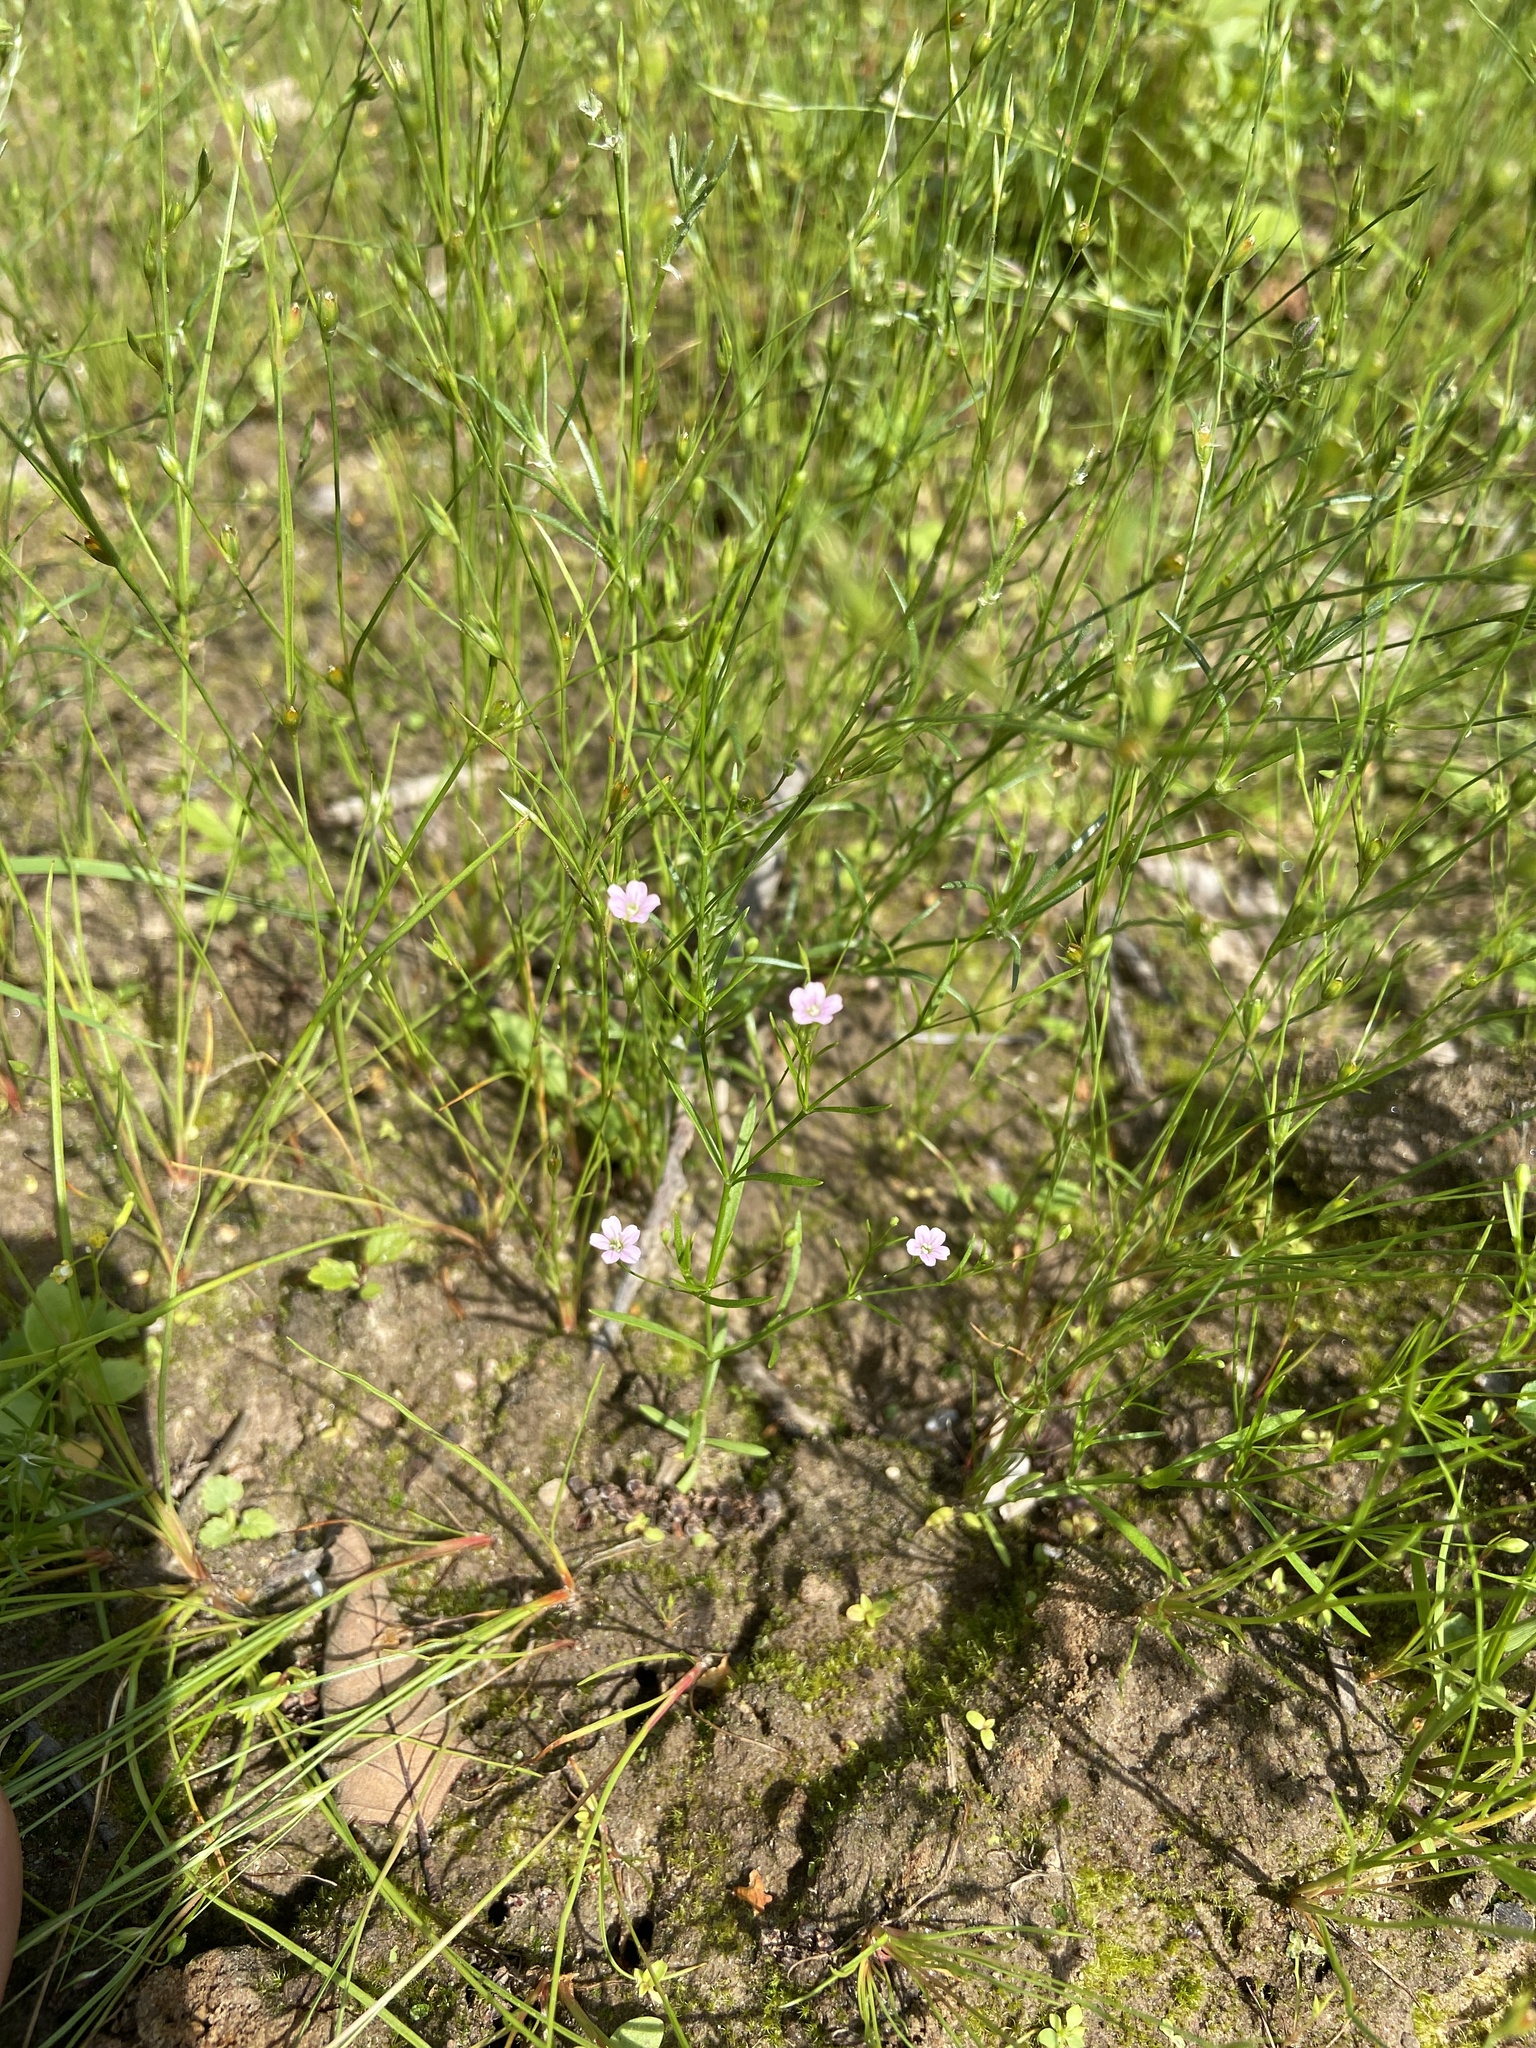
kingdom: Plantae
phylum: Tracheophyta
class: Magnoliopsida
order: Caryophyllales
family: Caryophyllaceae
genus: Psammophiliella
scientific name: Psammophiliella muralis
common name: Cushion baby's-breath
